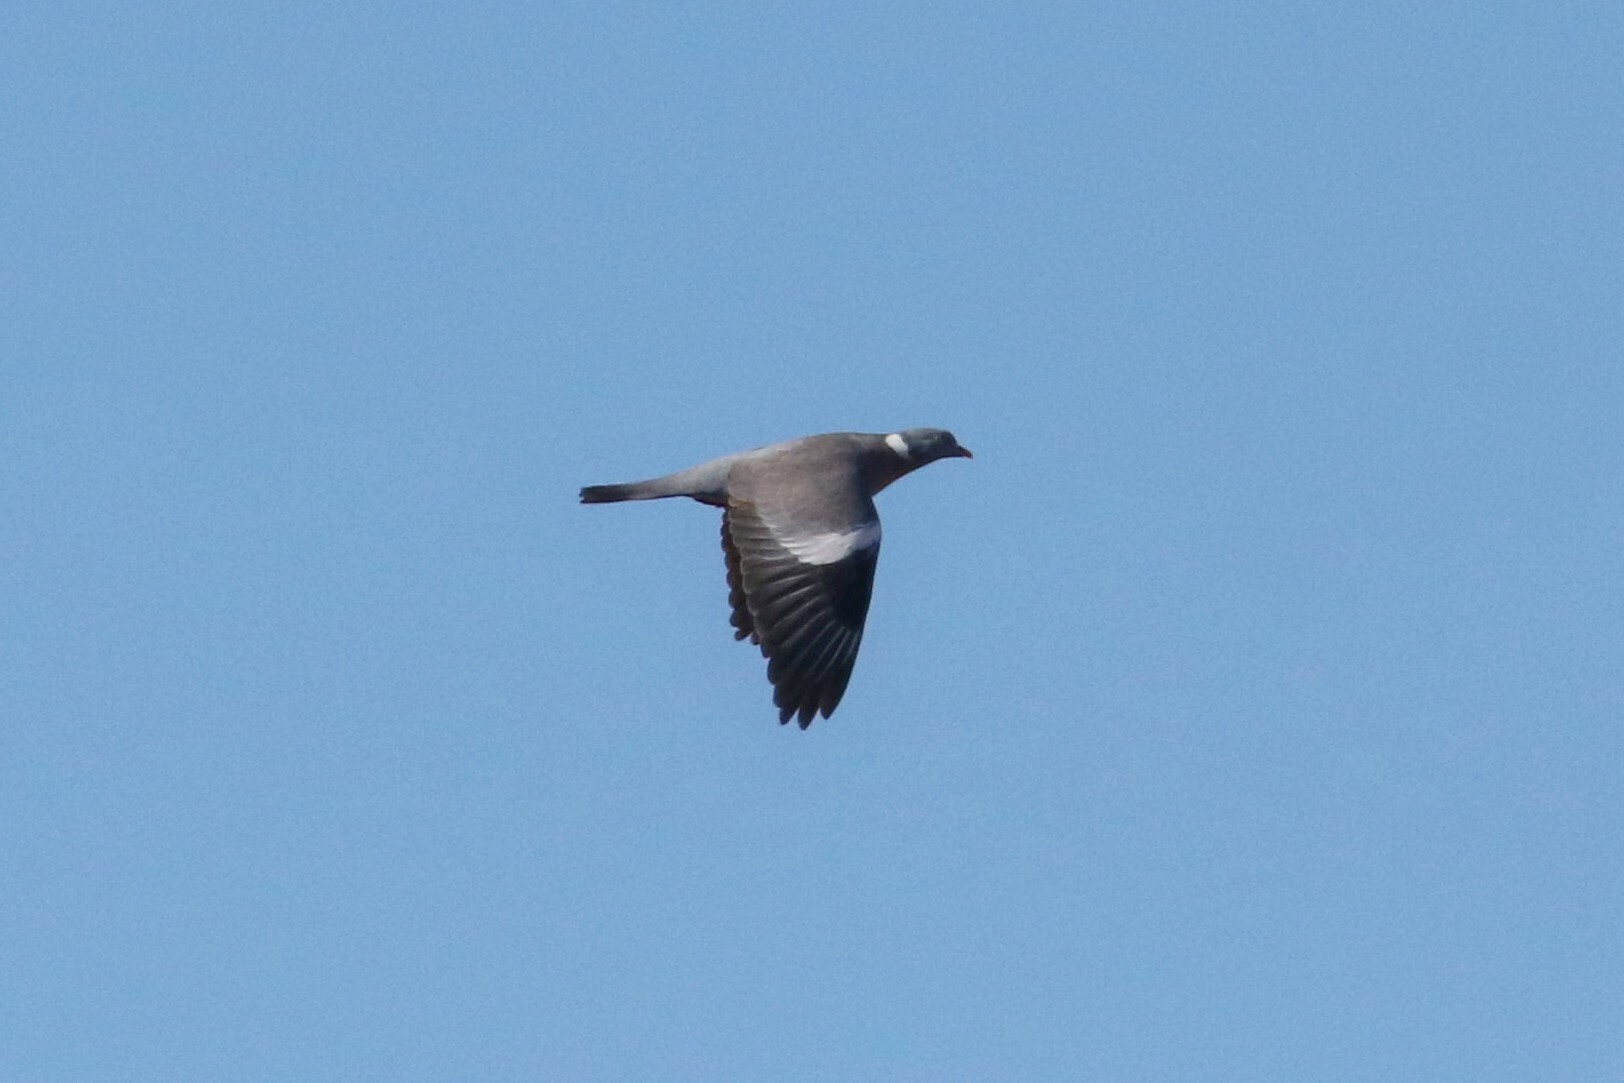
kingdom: Animalia
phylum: Chordata
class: Aves
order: Columbiformes
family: Columbidae
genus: Columba
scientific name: Columba palumbus
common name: Common wood pigeon
